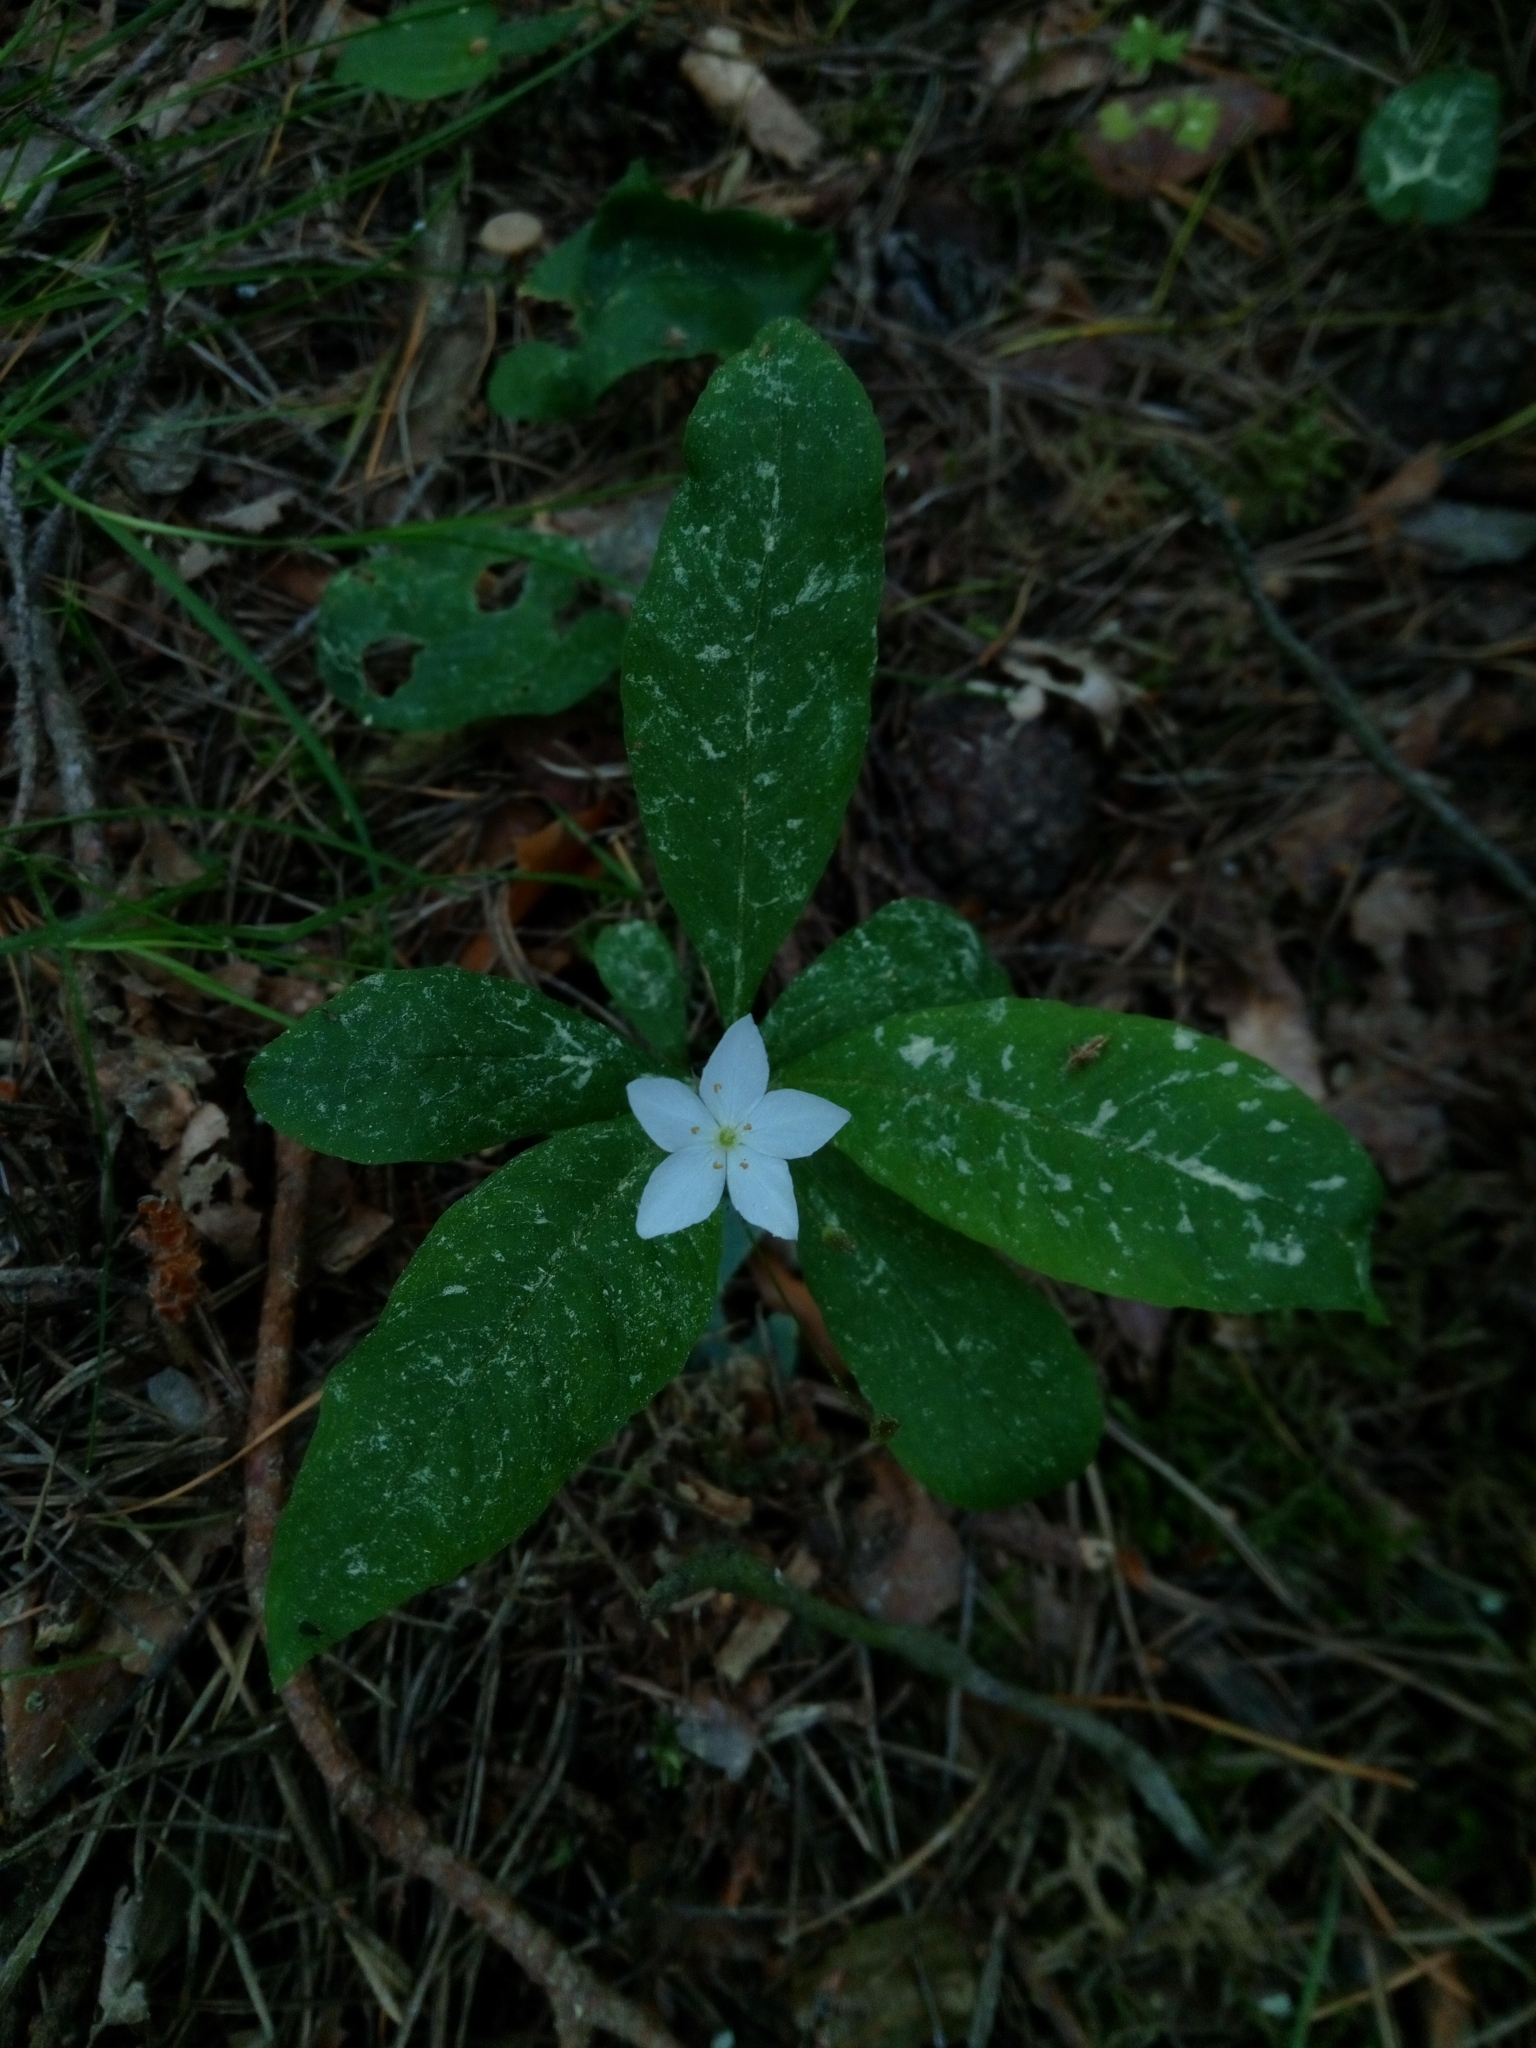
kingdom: Plantae
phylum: Tracheophyta
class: Magnoliopsida
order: Ericales
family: Primulaceae
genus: Lysimachia
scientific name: Lysimachia europaea
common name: Arctic starflower
